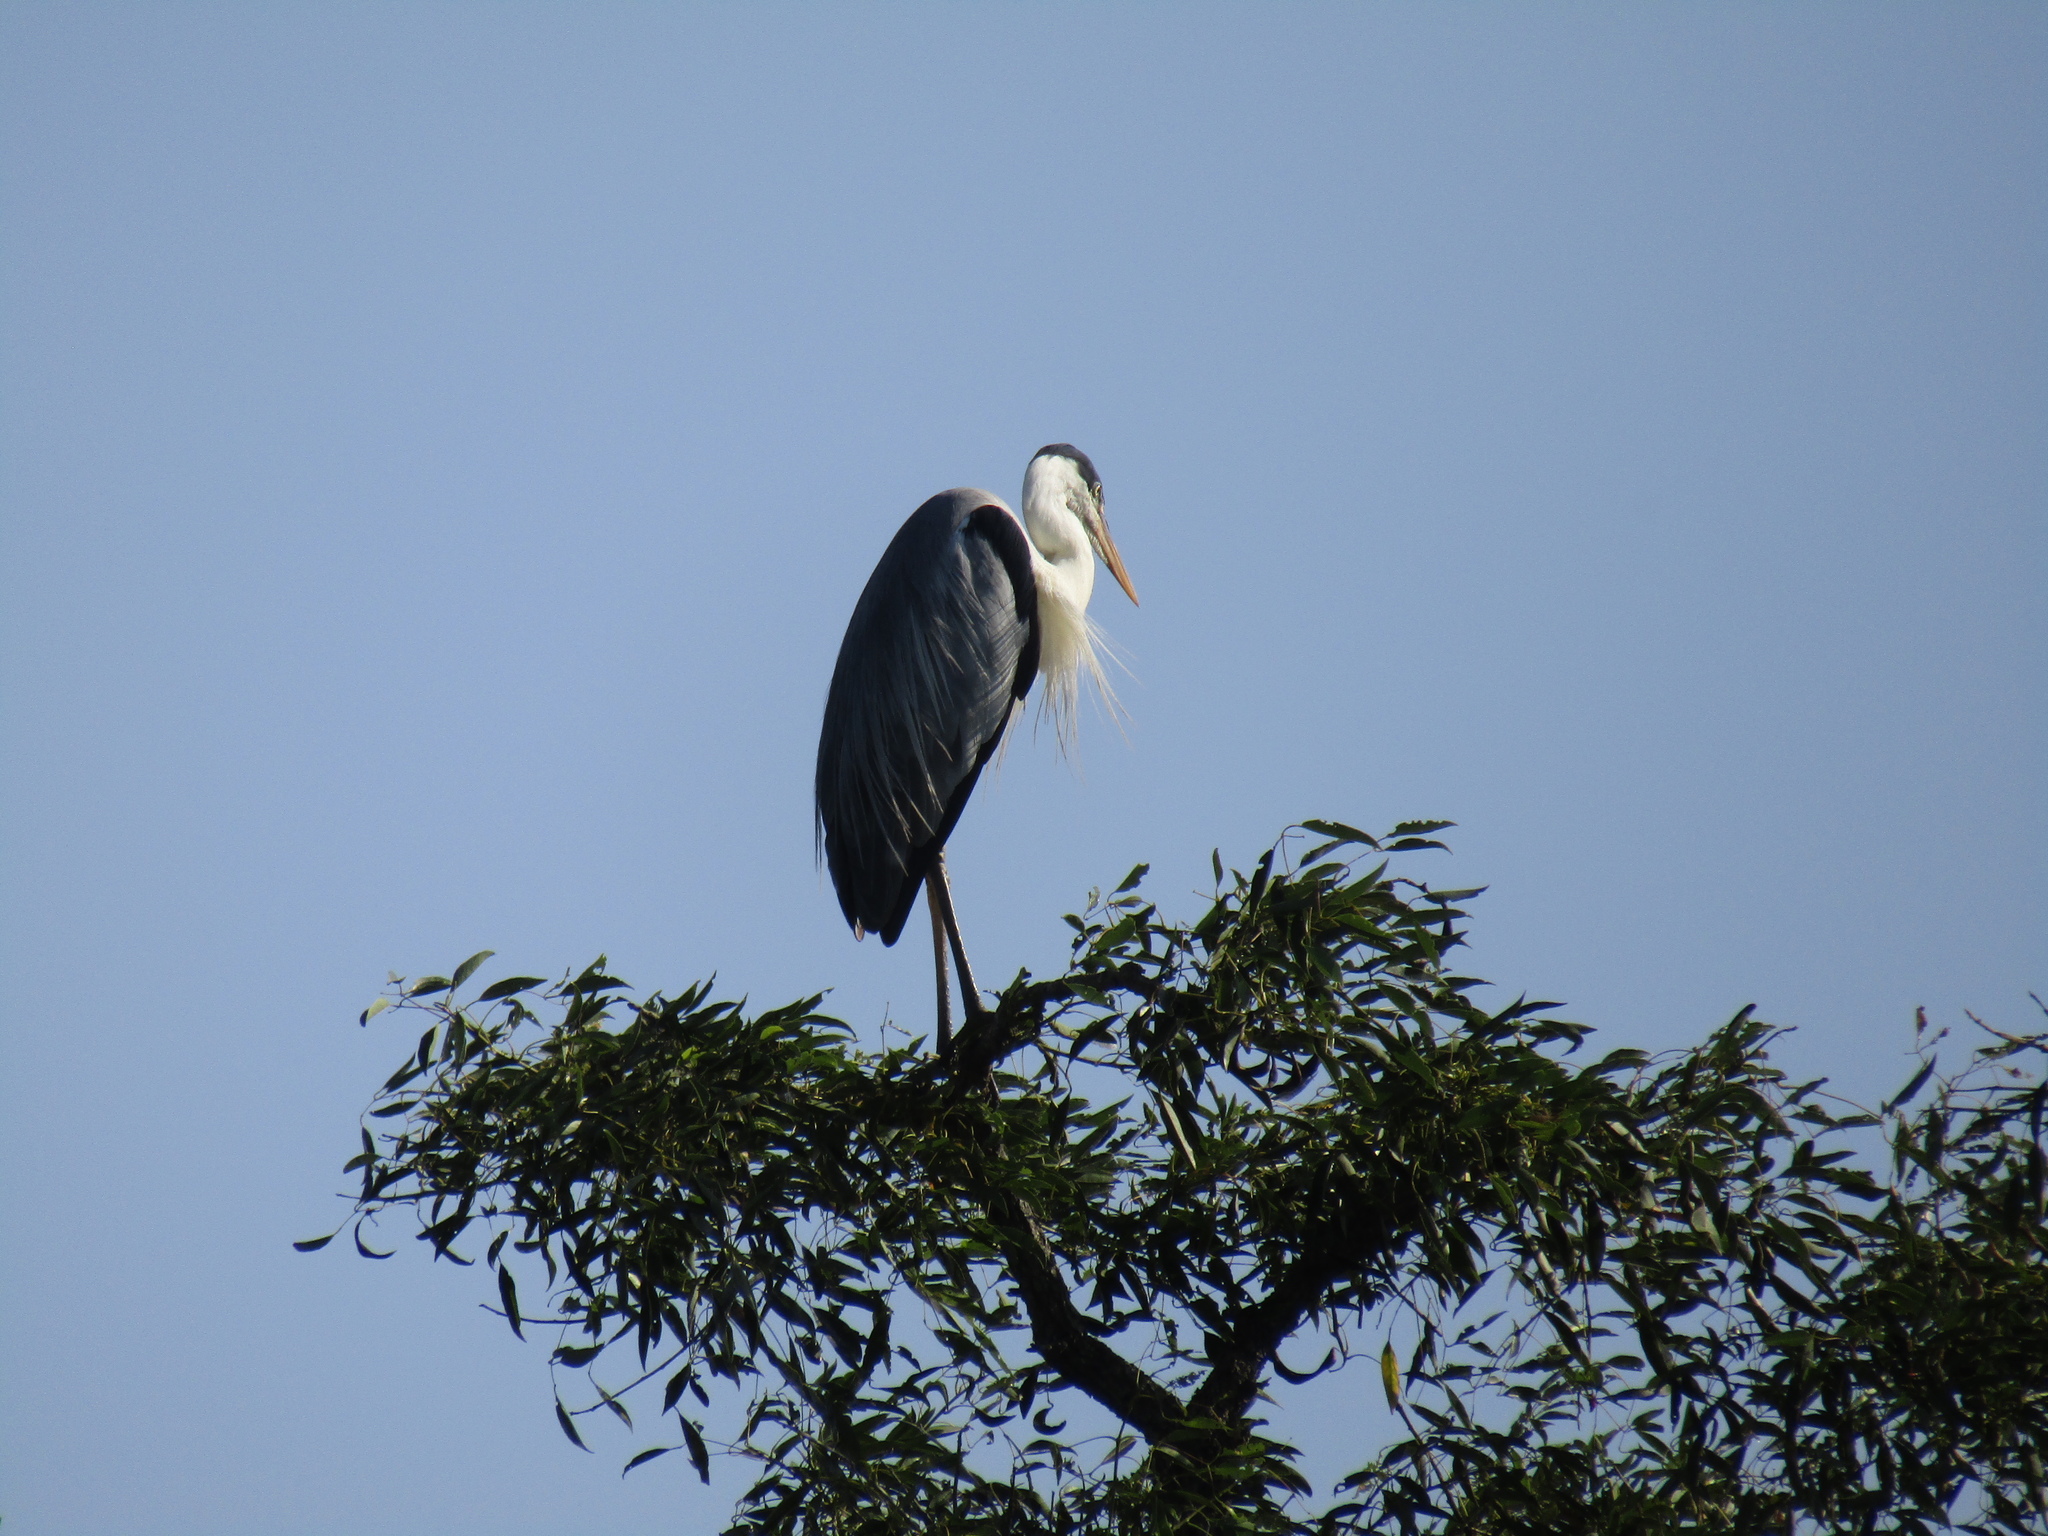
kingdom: Animalia
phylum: Chordata
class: Aves
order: Pelecaniformes
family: Ardeidae
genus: Ardea
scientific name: Ardea cocoi
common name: Cocoi heron
